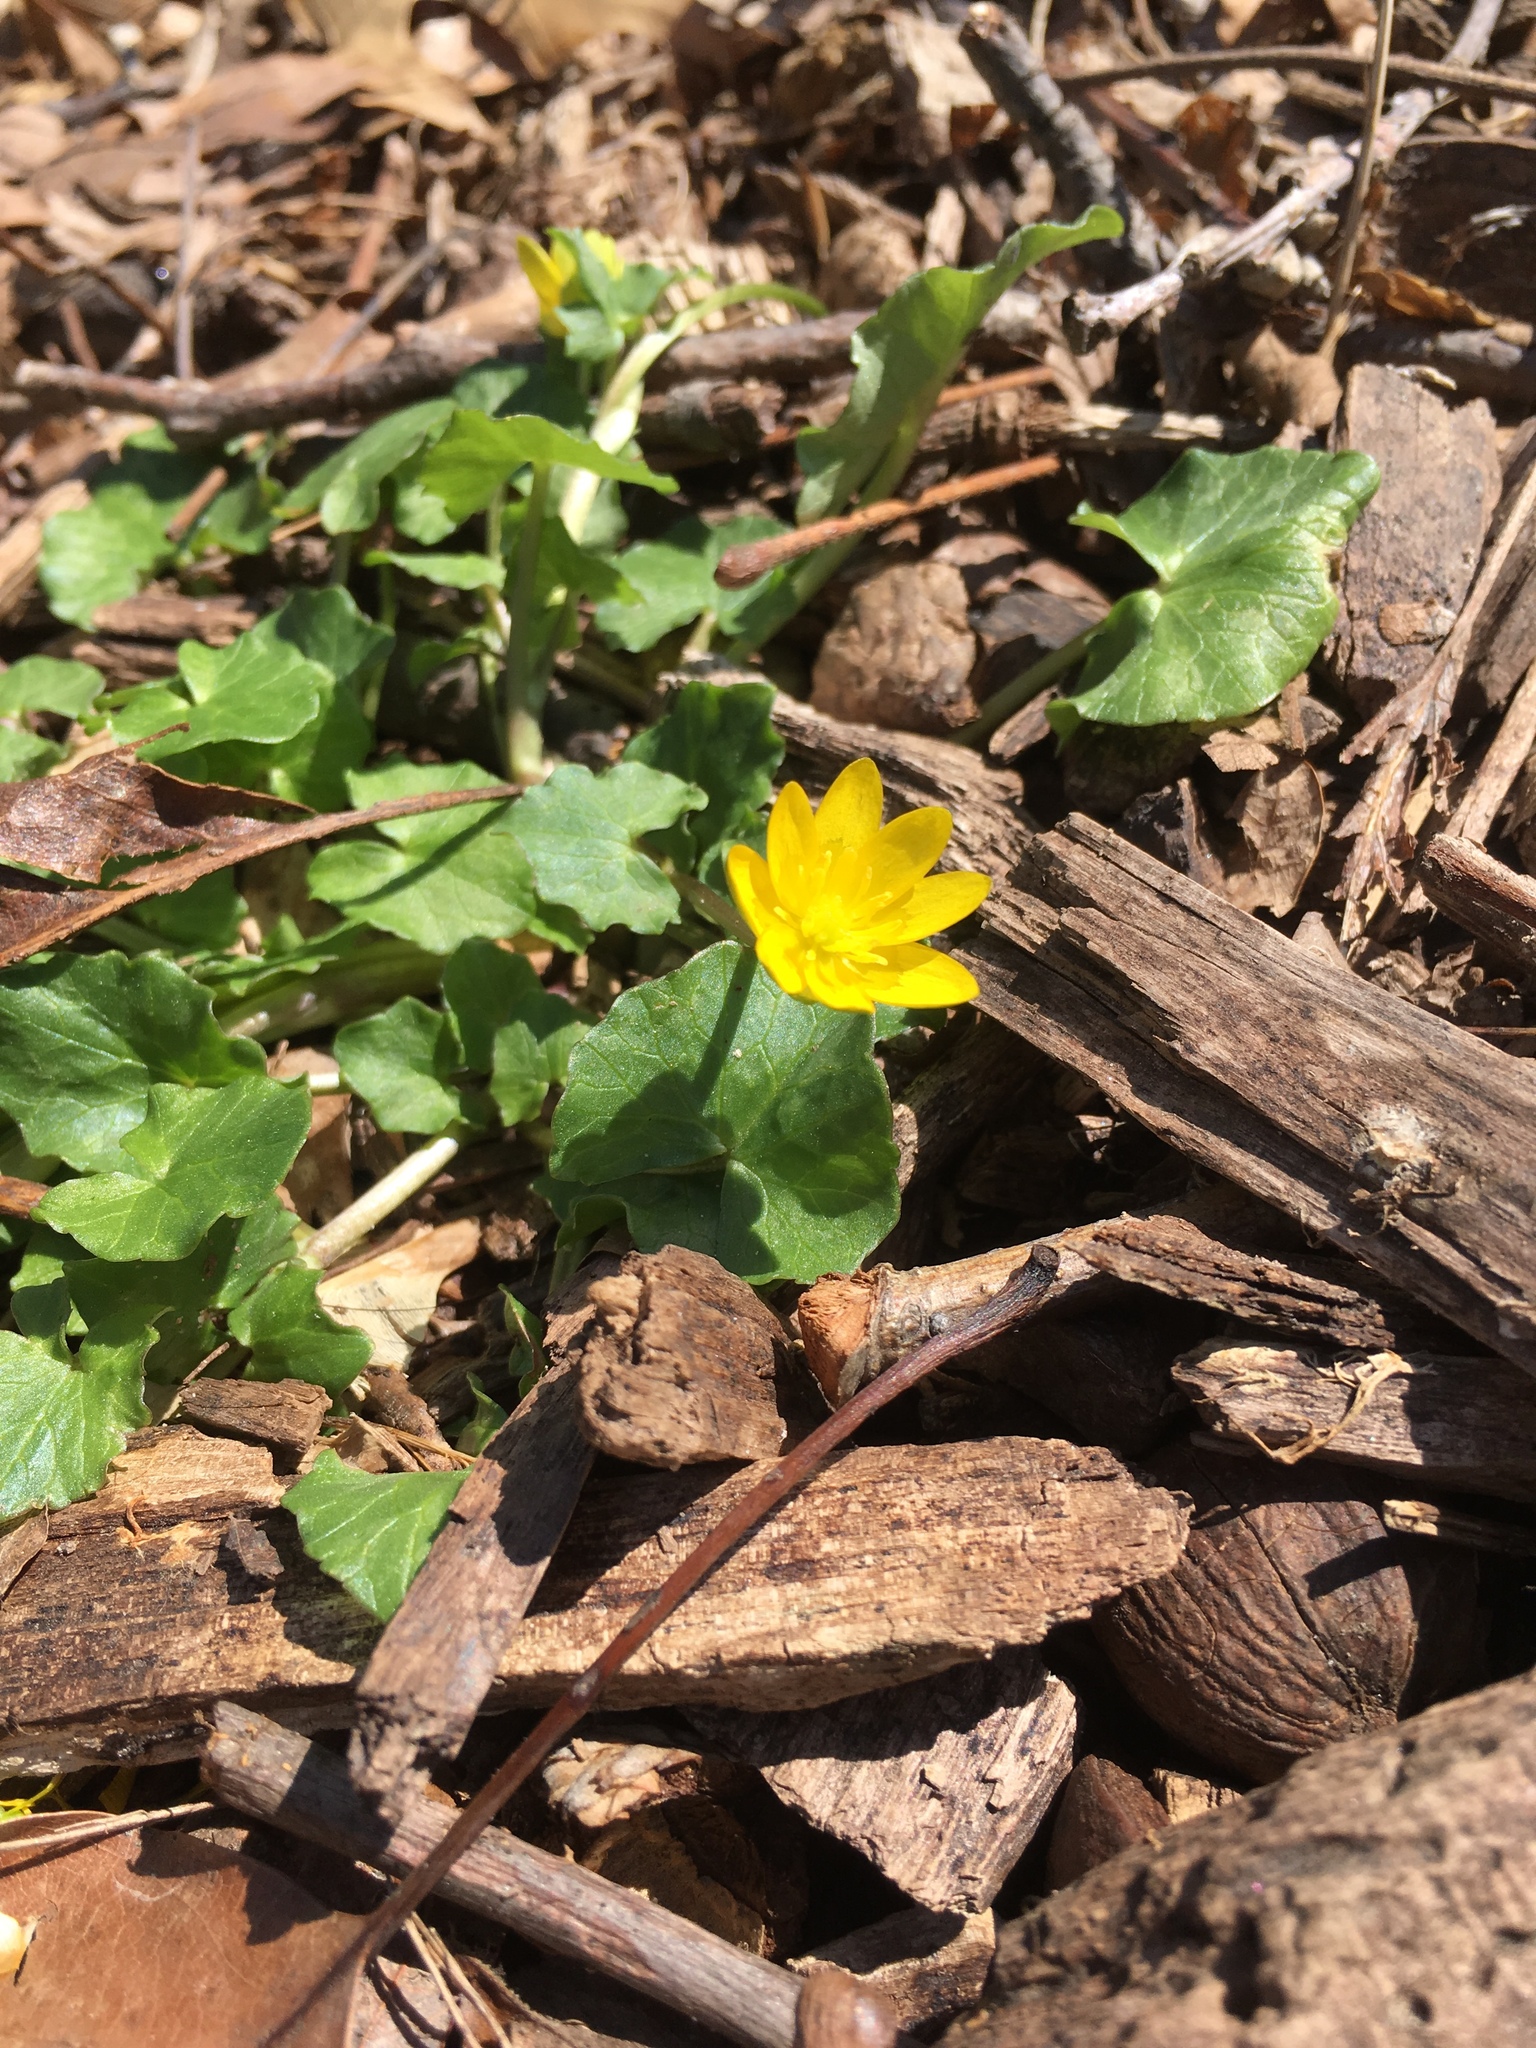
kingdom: Plantae
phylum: Tracheophyta
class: Magnoliopsida
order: Ranunculales
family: Ranunculaceae
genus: Ficaria
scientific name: Ficaria verna
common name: Lesser celandine
